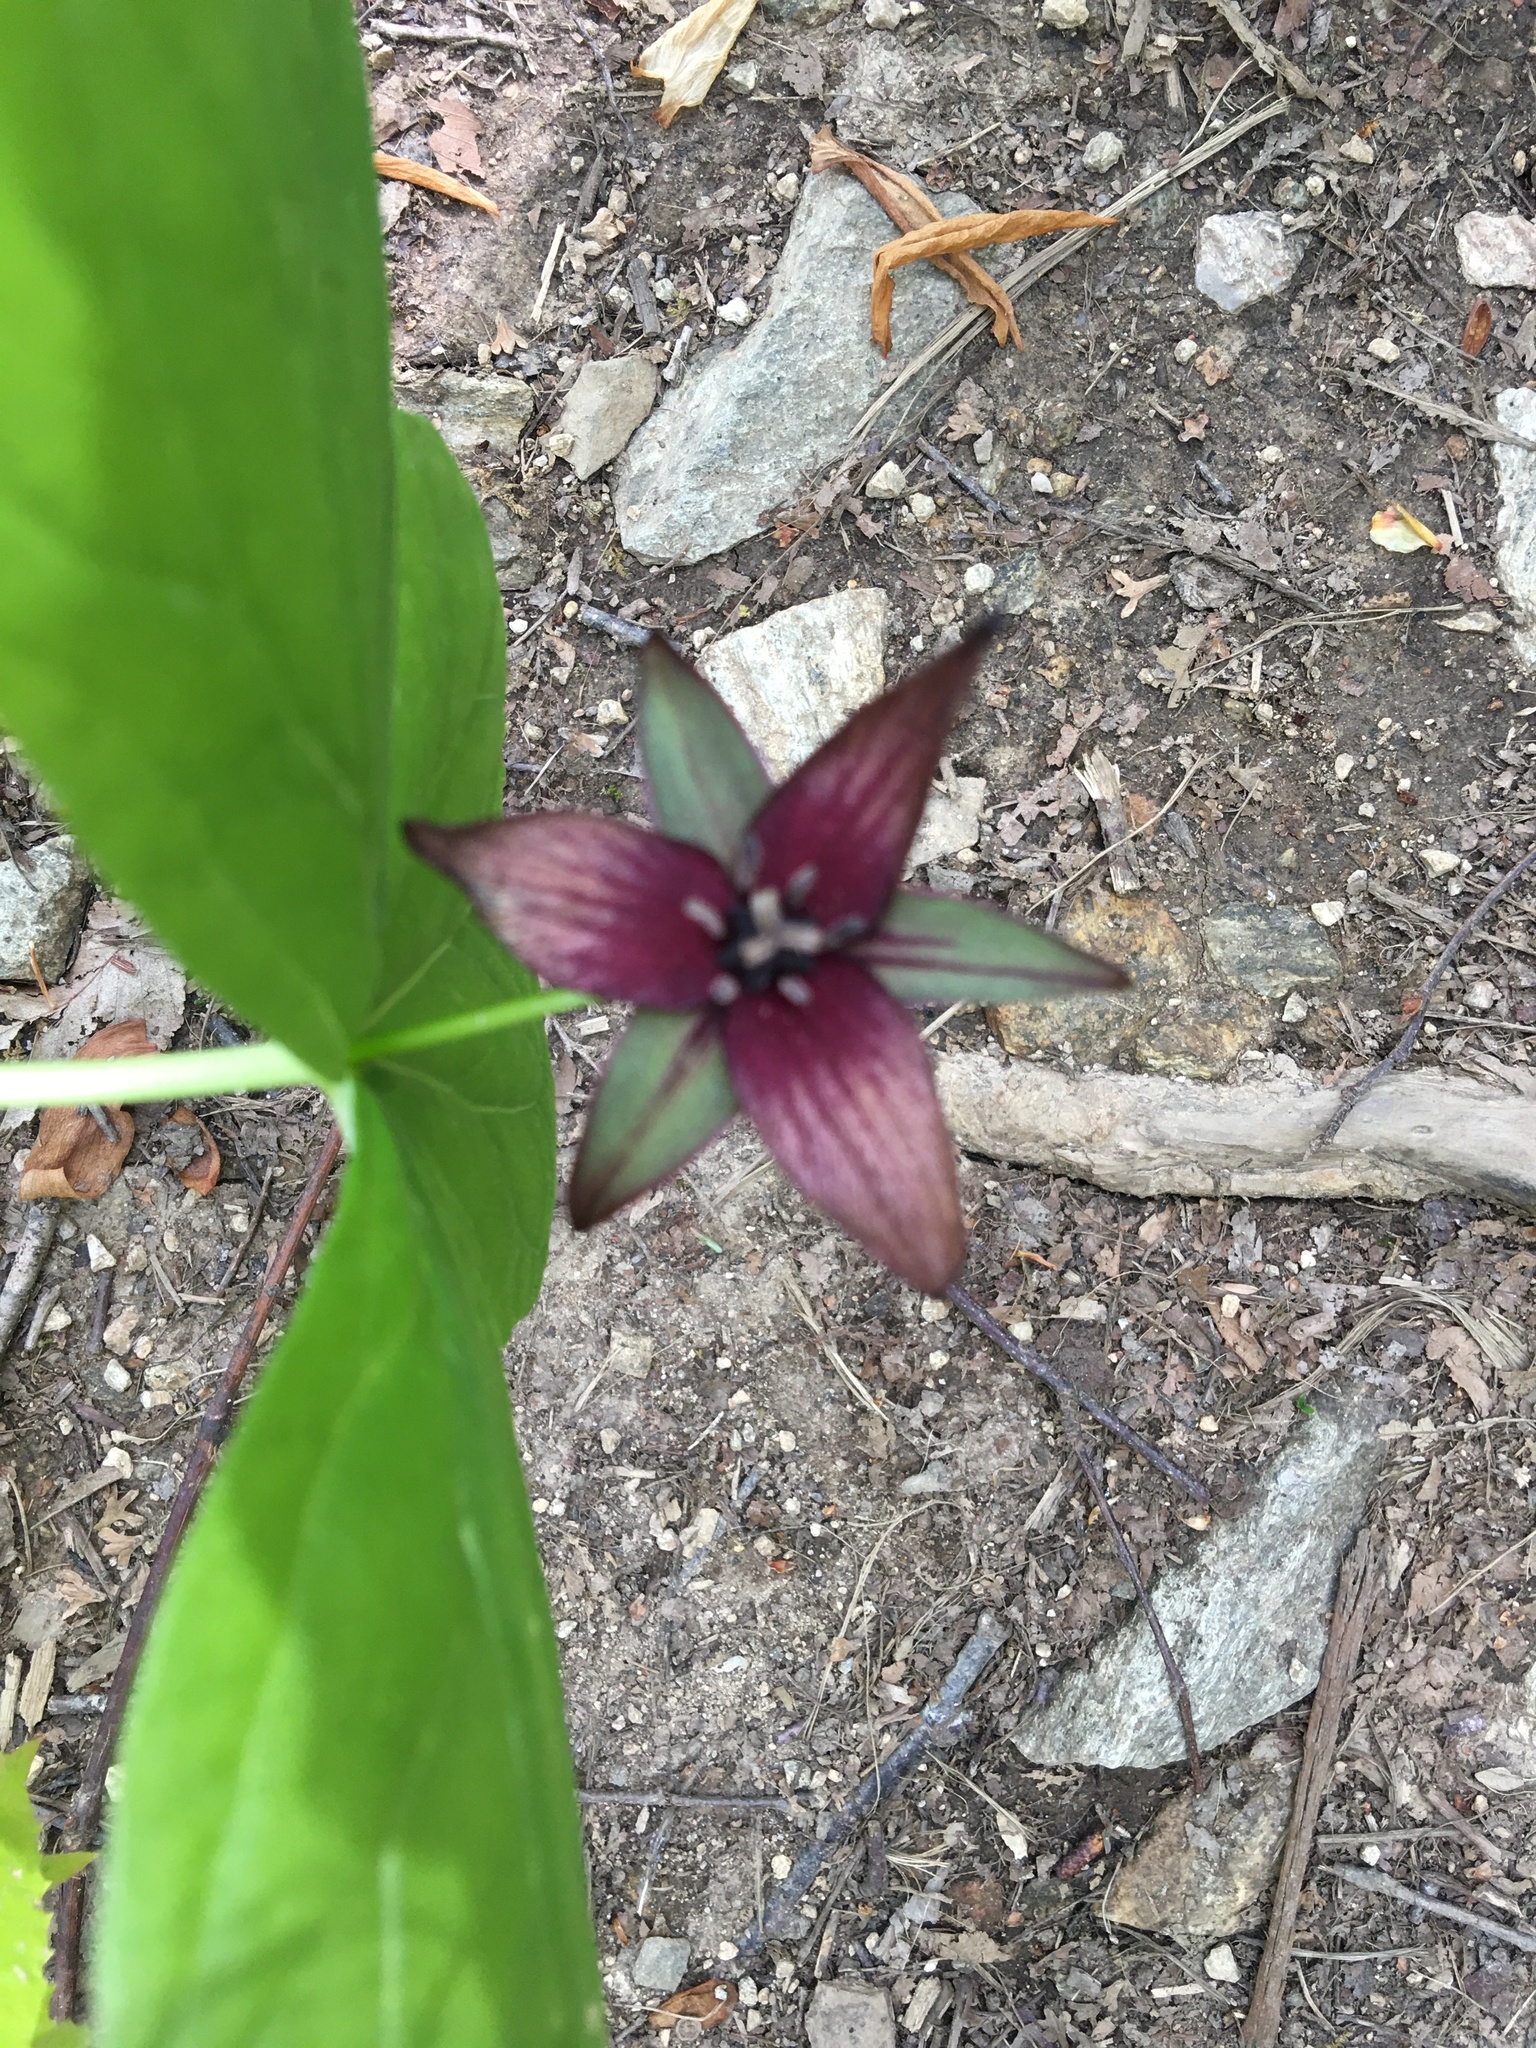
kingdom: Plantae
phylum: Tracheophyta
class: Liliopsida
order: Liliales
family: Melanthiaceae
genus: Trillium
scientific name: Trillium erectum
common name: Purple trillium
